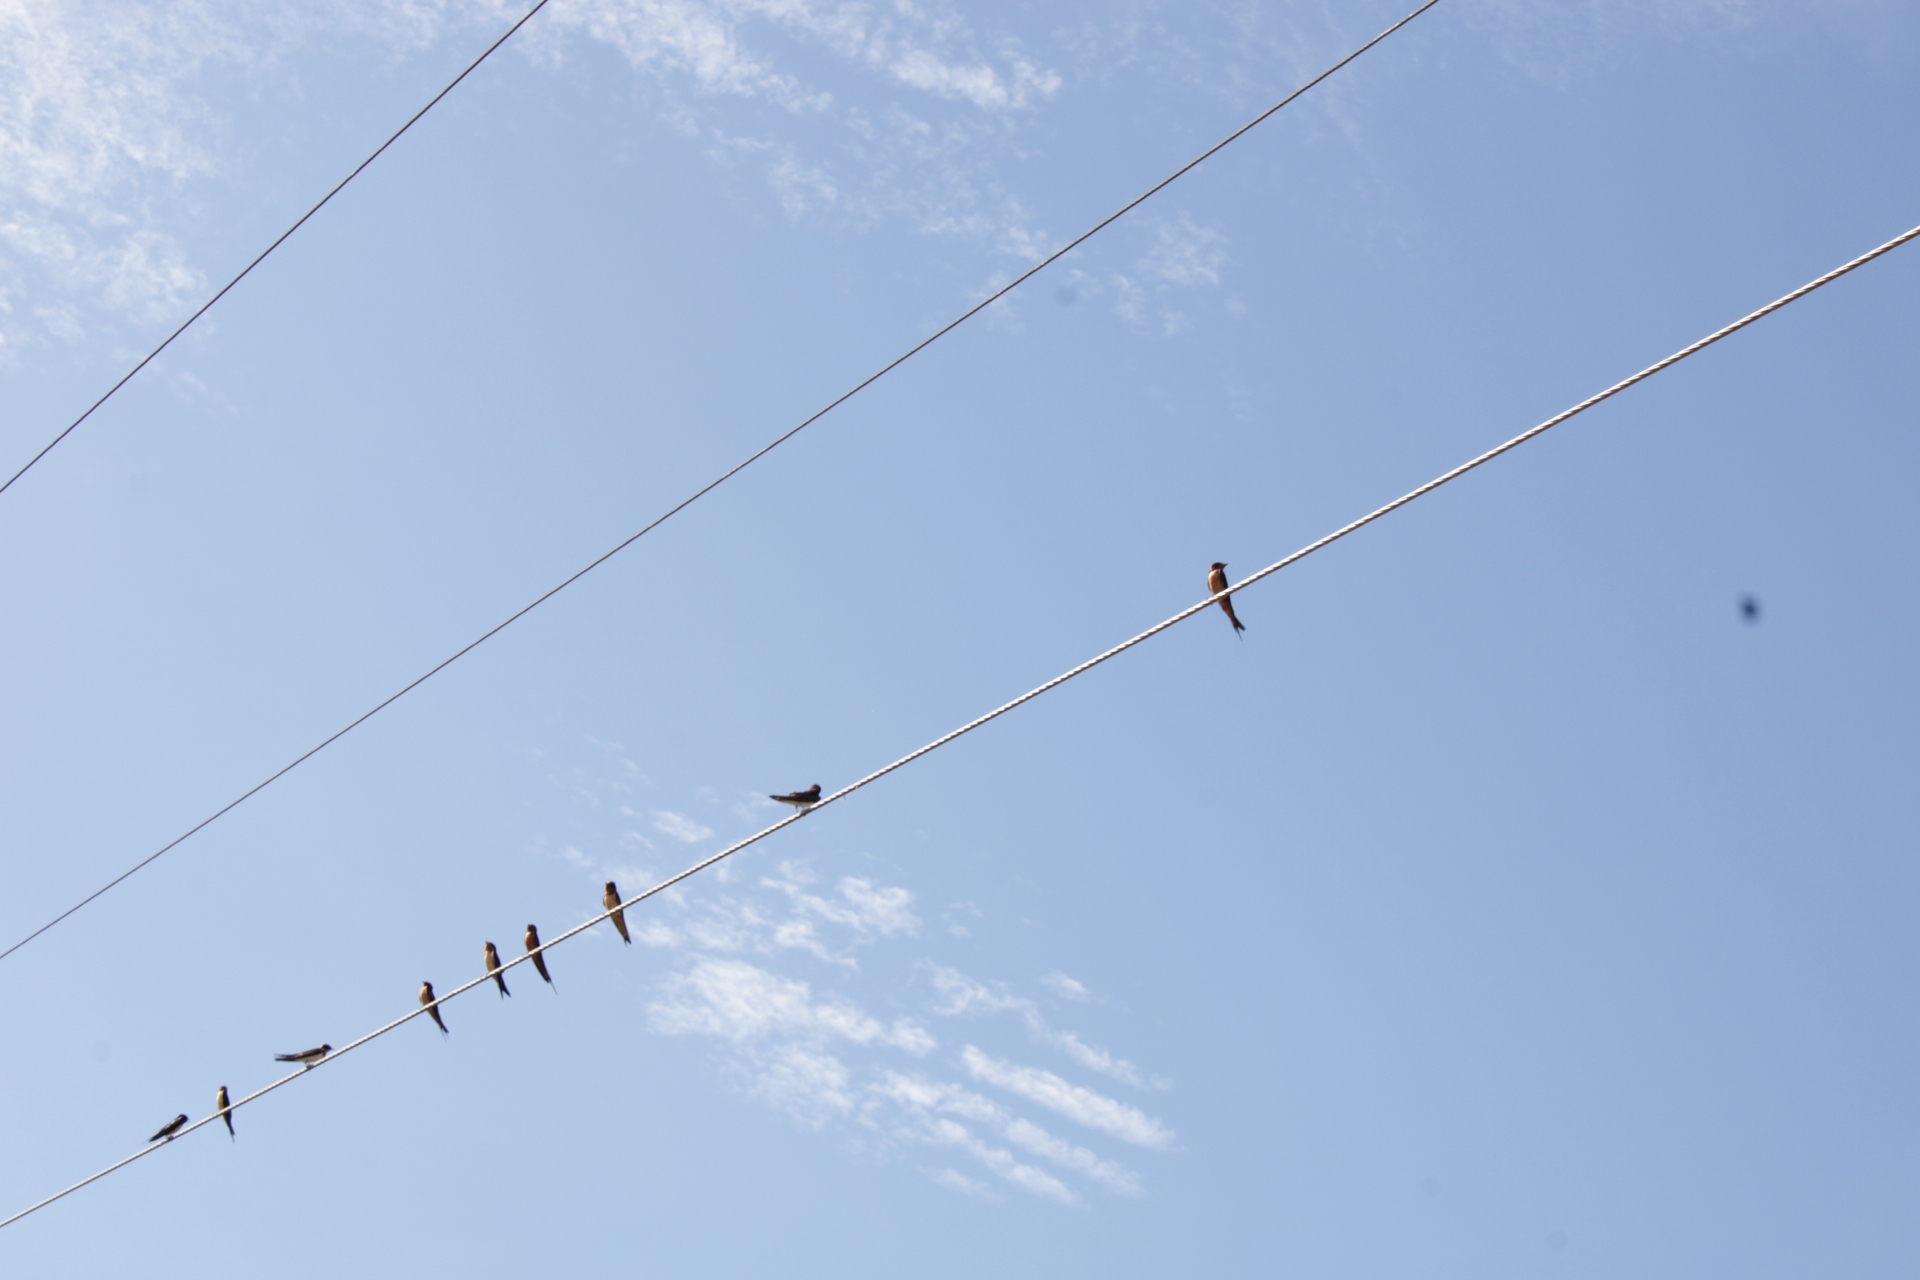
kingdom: Animalia
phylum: Chordata
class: Aves
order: Passeriformes
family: Hirundinidae
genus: Hirundo
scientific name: Hirundo rustica
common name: Barn swallow
